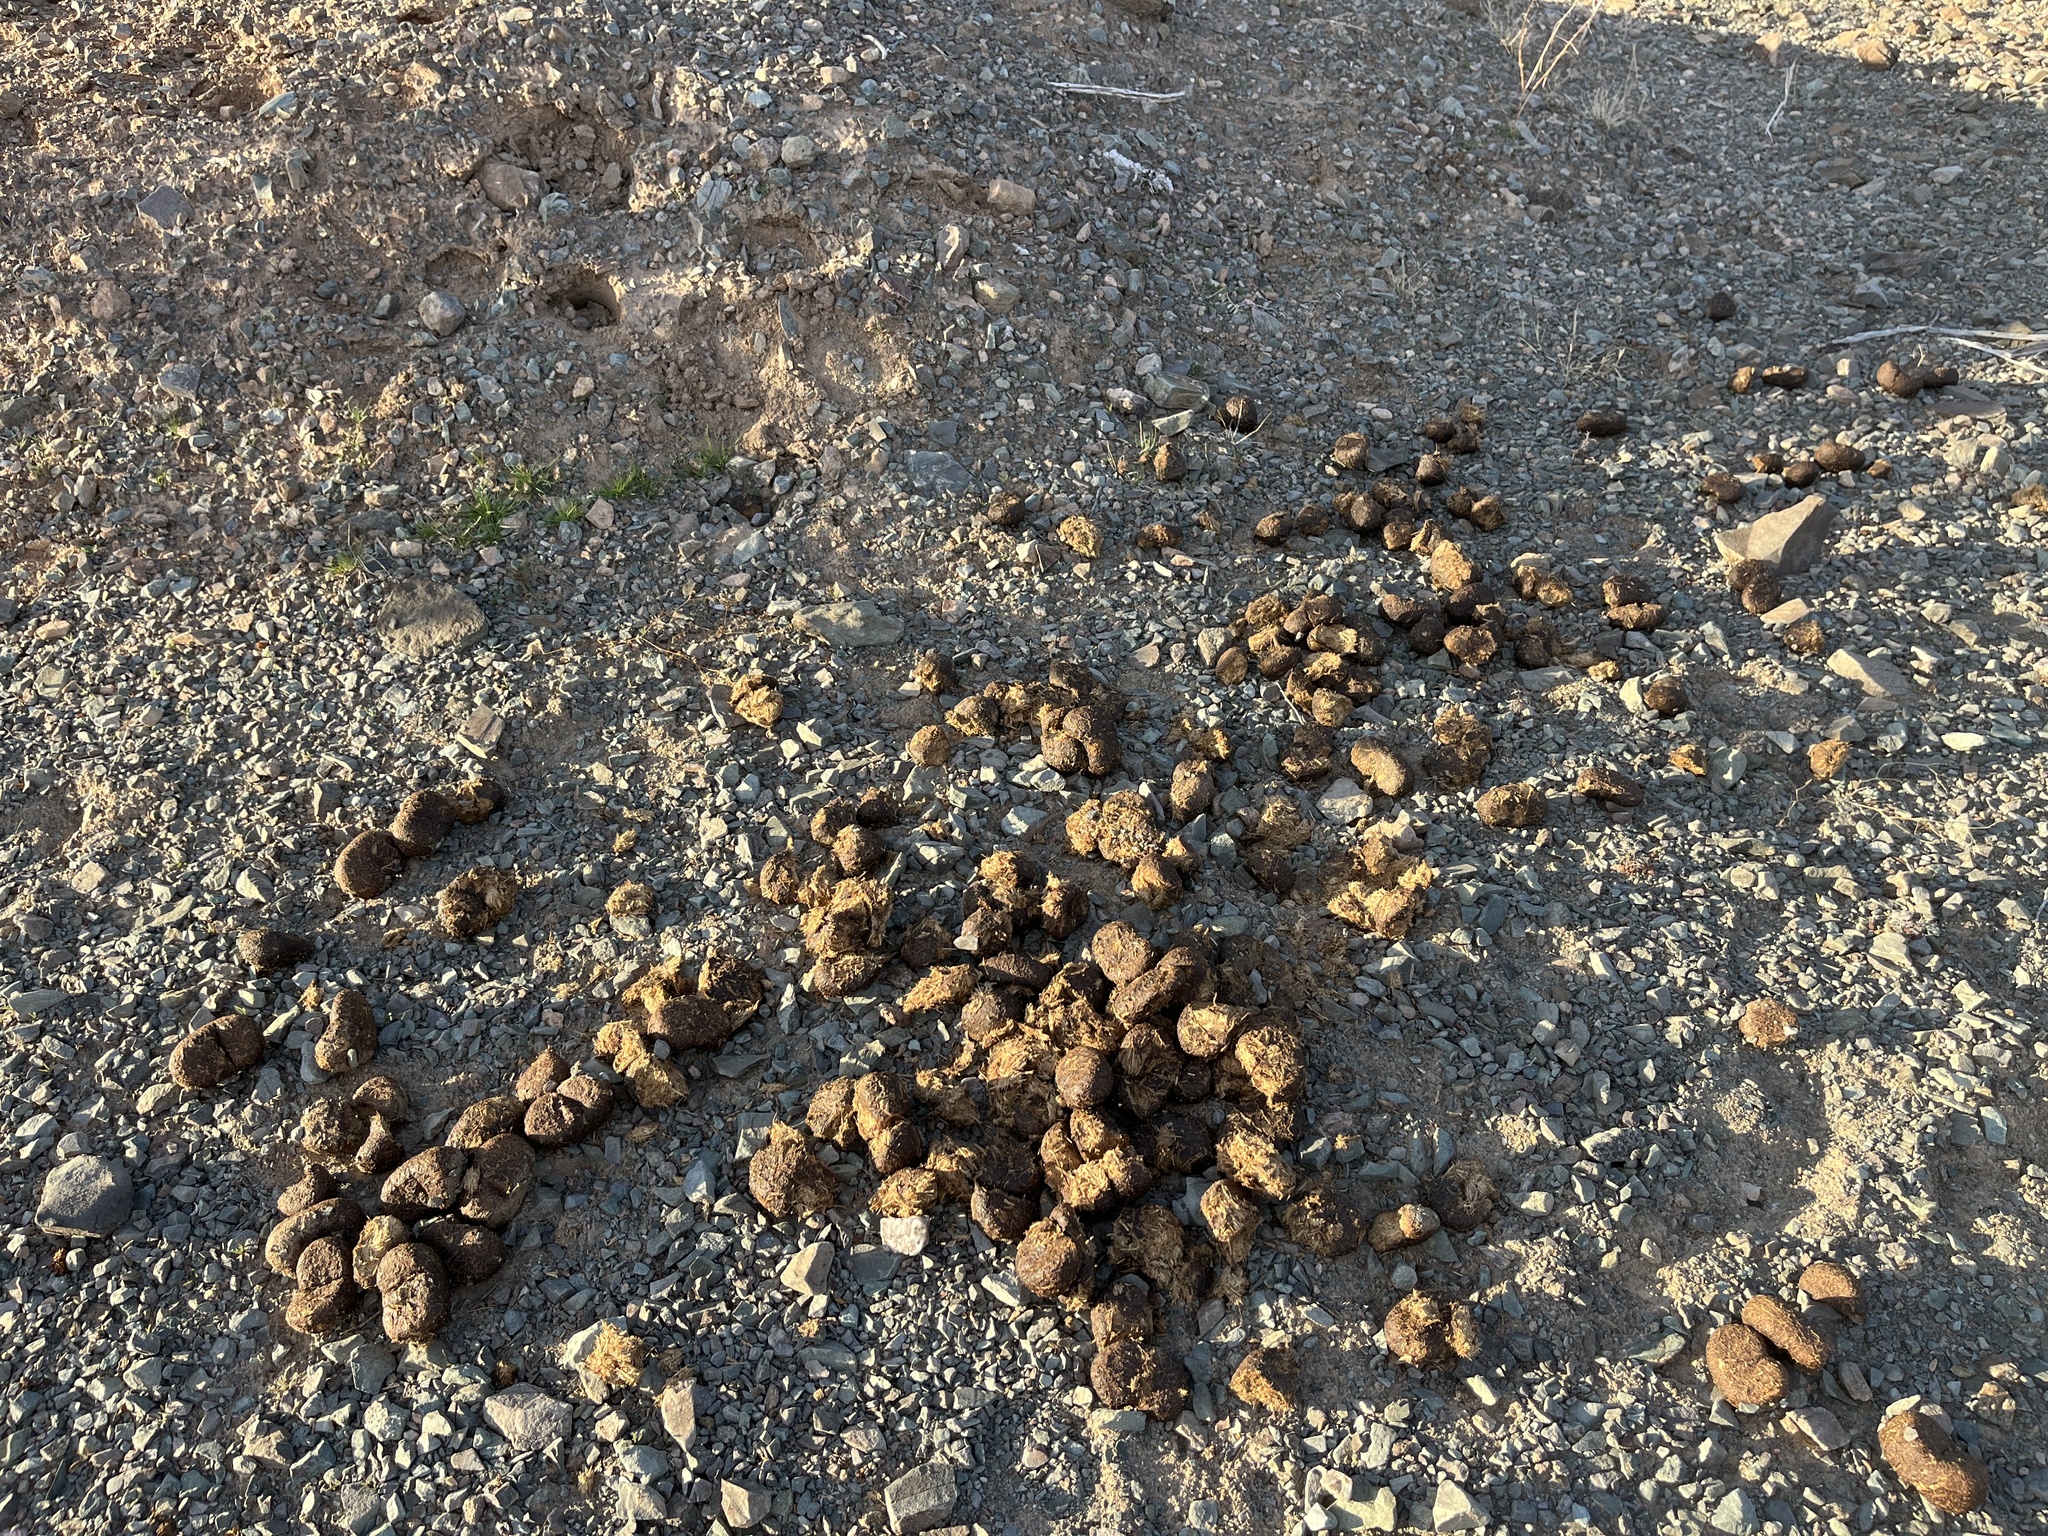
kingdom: Animalia
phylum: Chordata
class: Mammalia
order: Perissodactyla
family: Equidae
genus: Equus
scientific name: Equus asinus
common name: Ass
